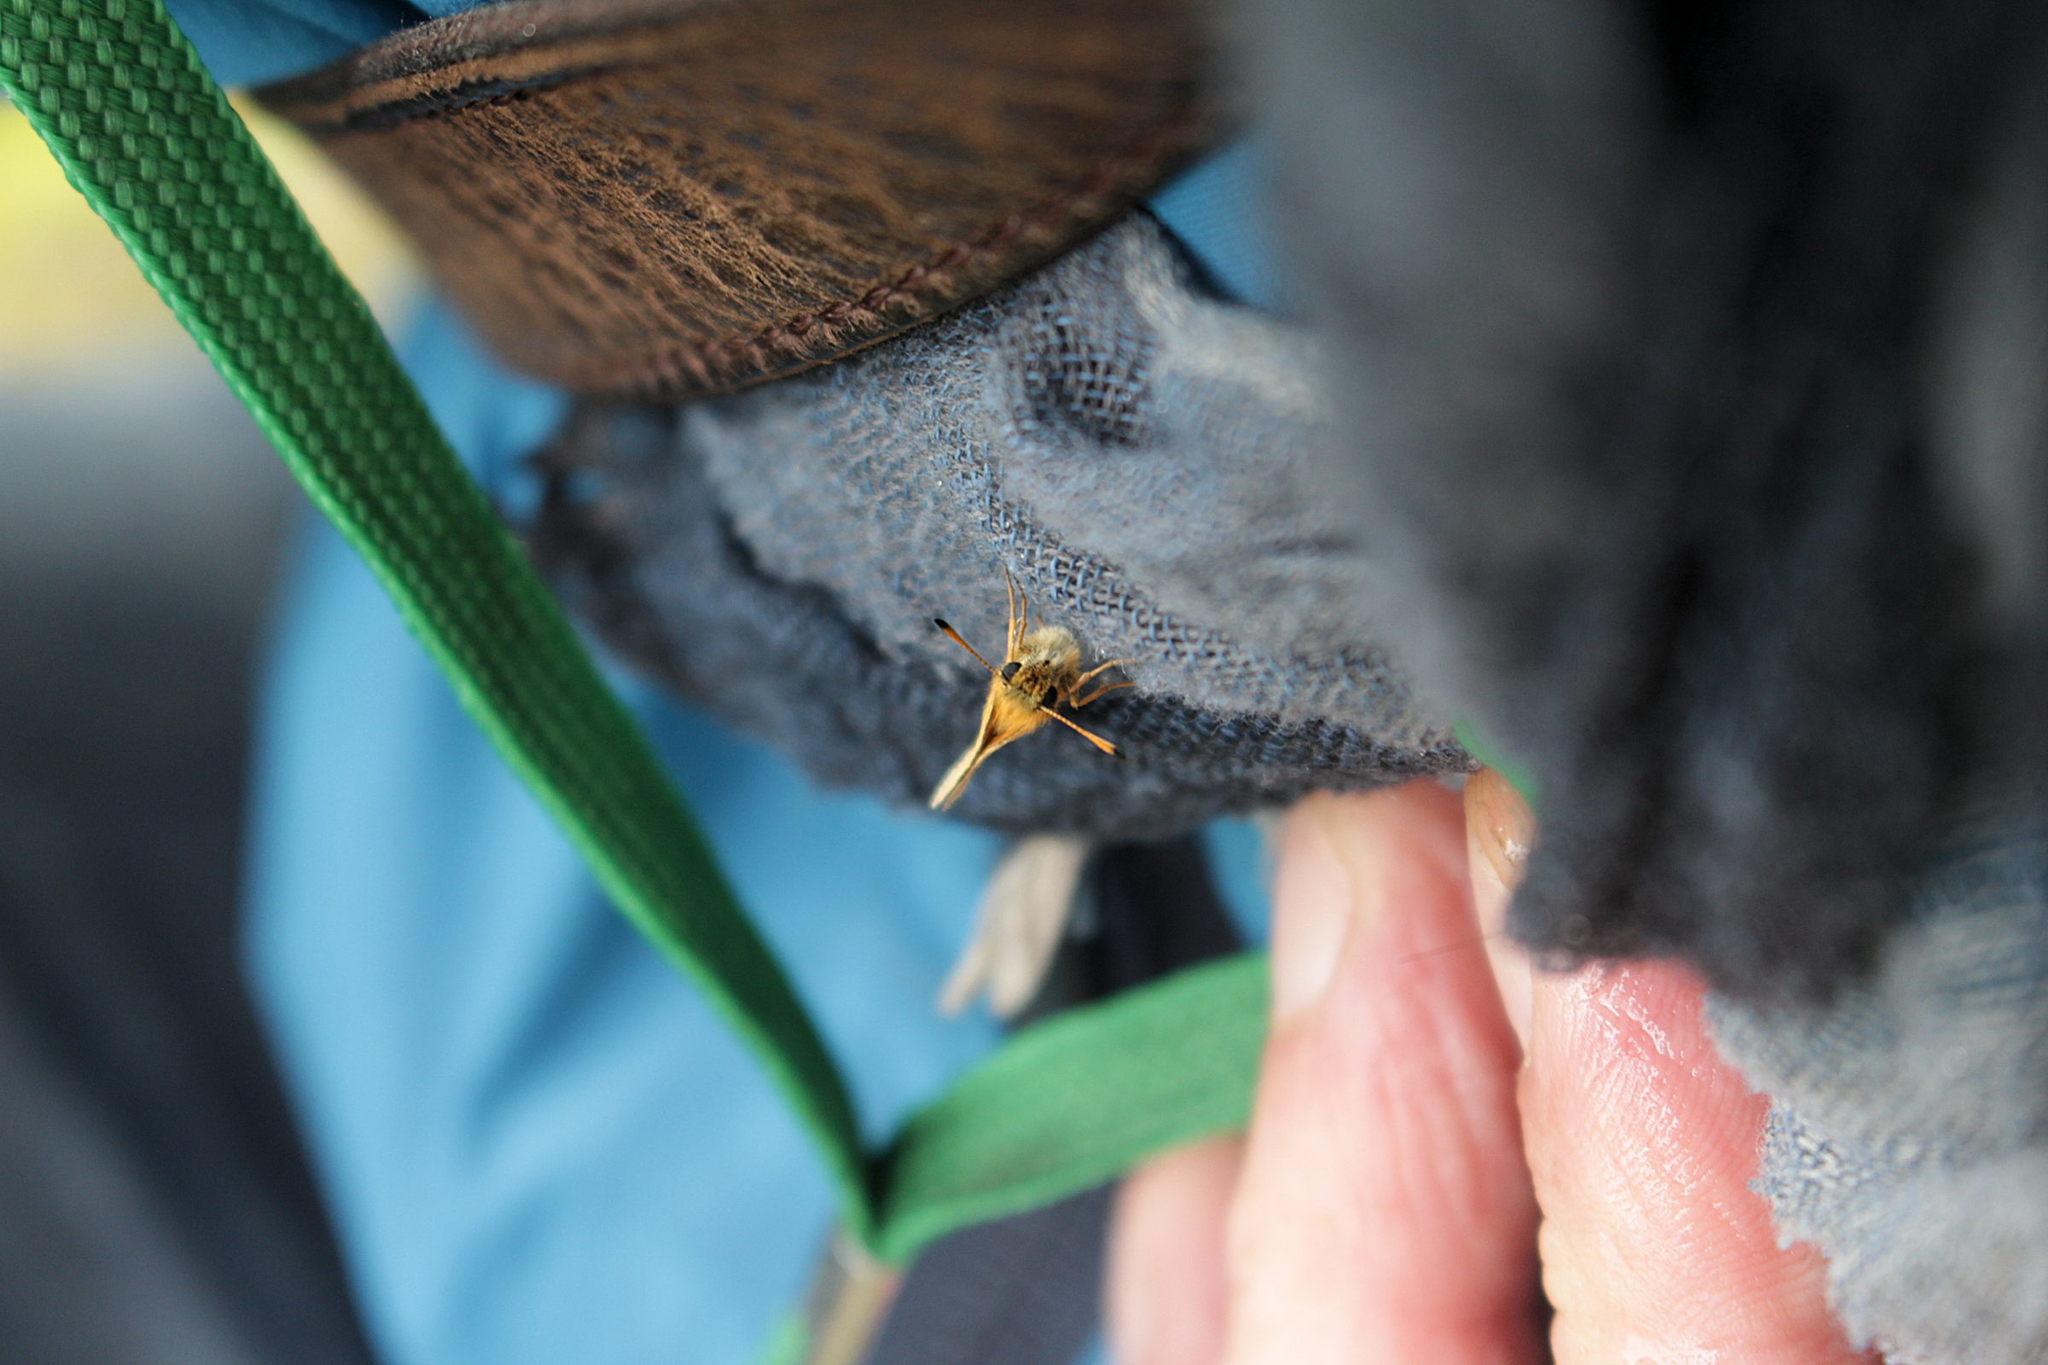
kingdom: Animalia
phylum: Arthropoda
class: Insecta
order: Lepidoptera
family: Hesperiidae
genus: Thymelicus
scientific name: Thymelicus lineola
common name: Essex skipper
